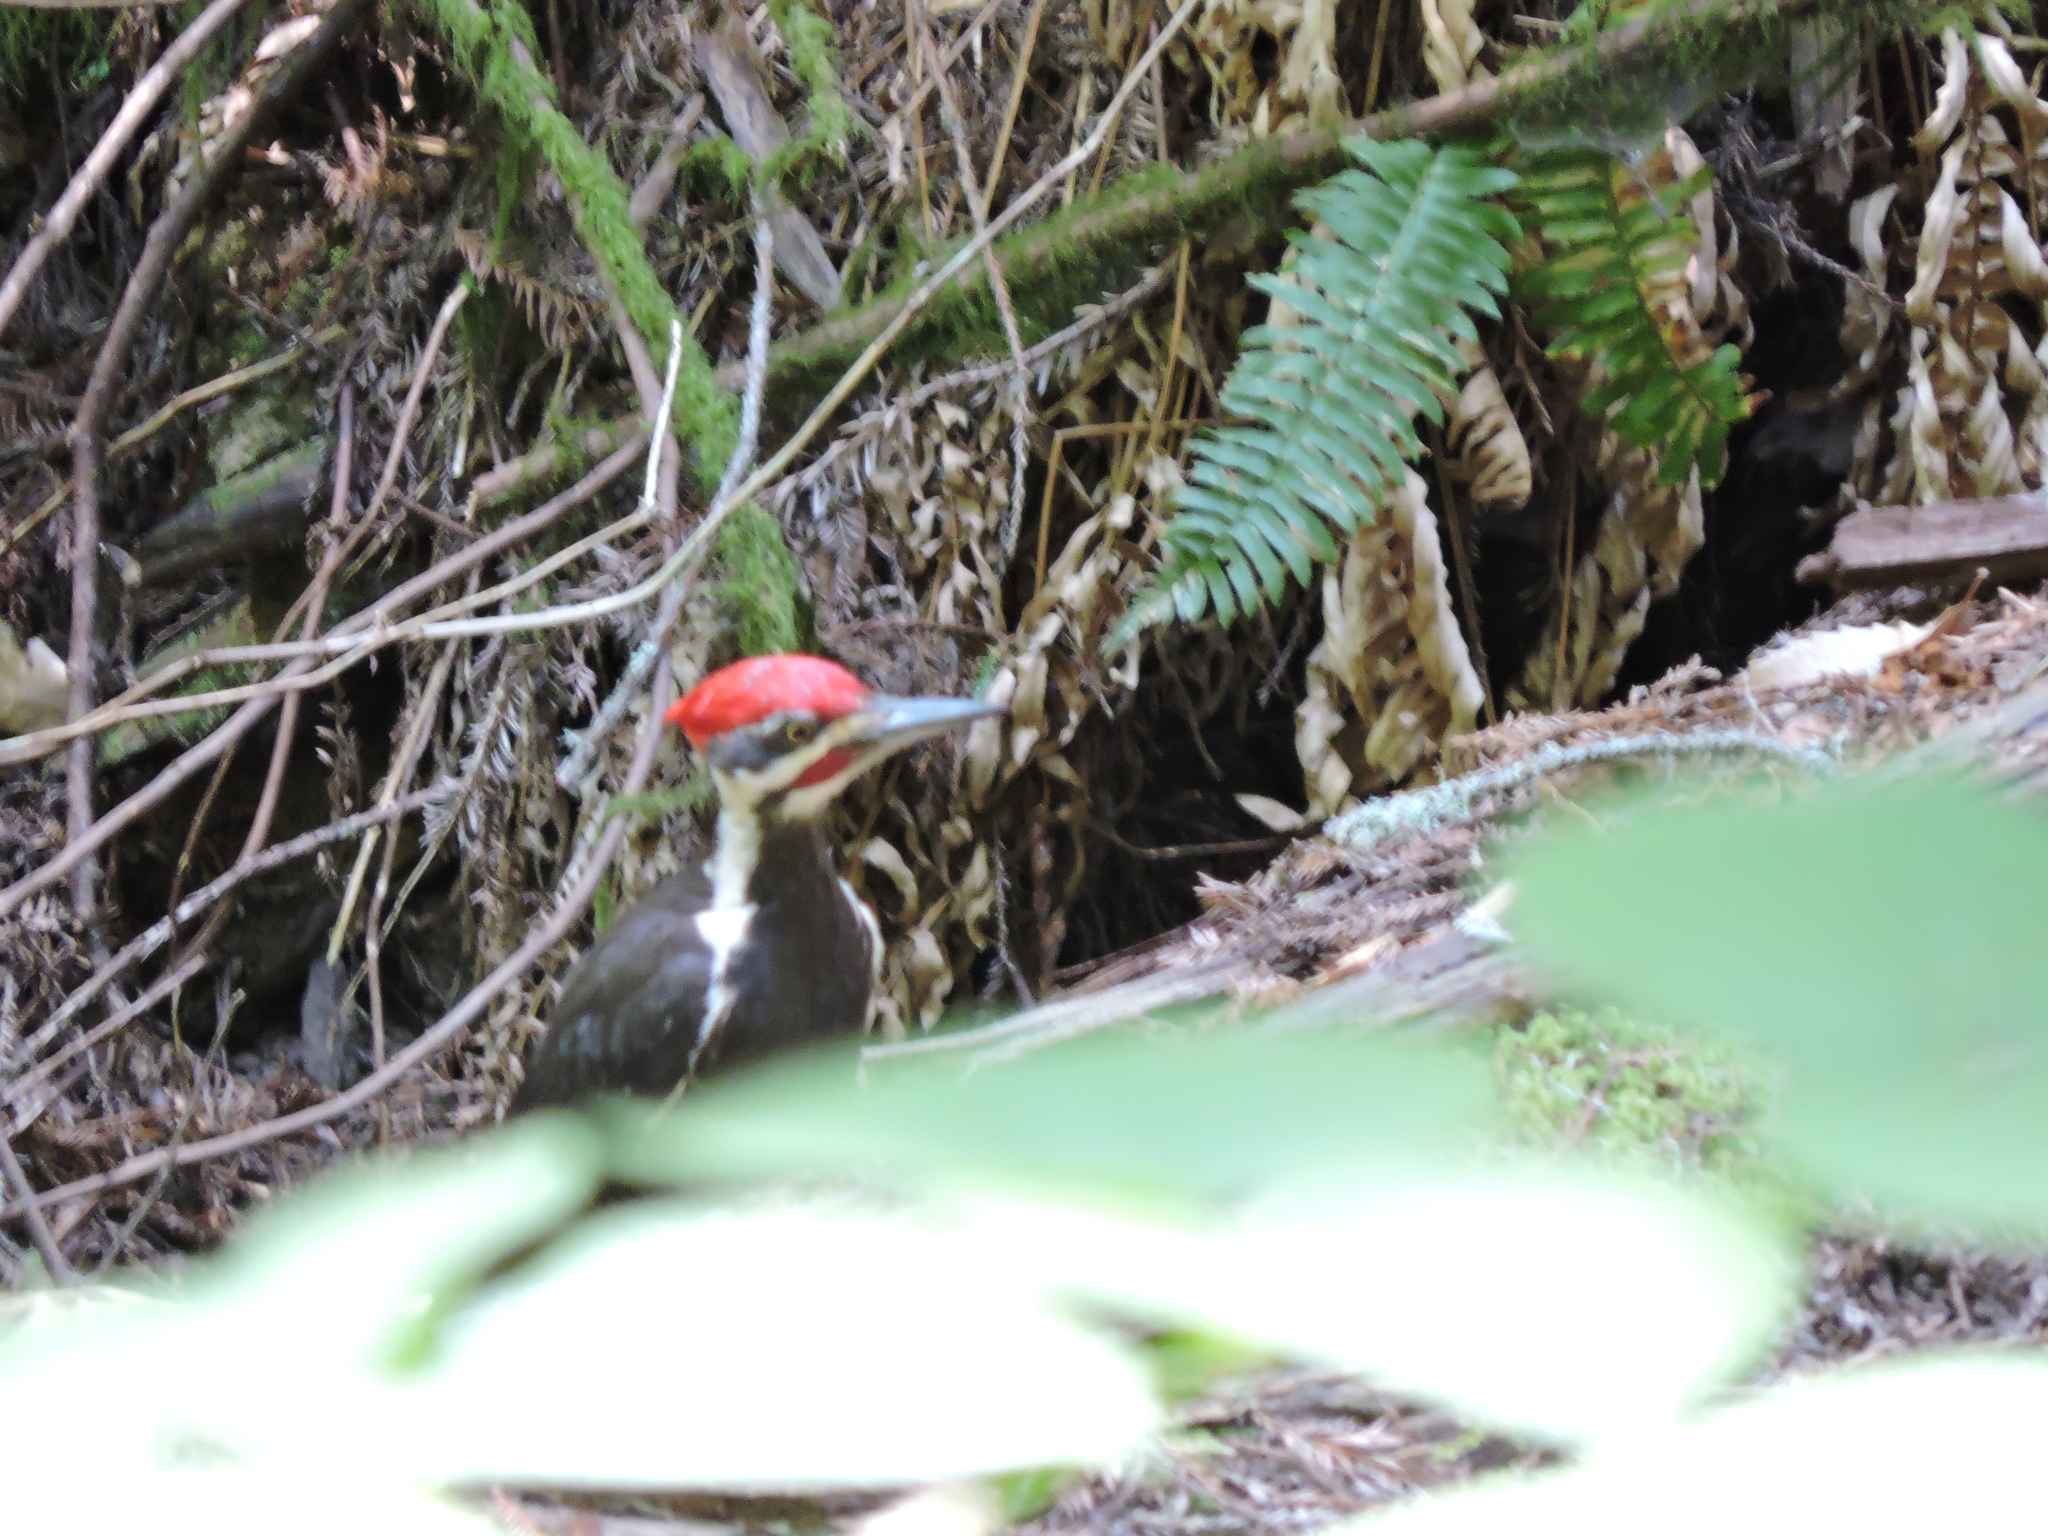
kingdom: Animalia
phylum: Chordata
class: Aves
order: Piciformes
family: Picidae
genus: Dryocopus
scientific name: Dryocopus pileatus
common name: Pileated woodpecker
